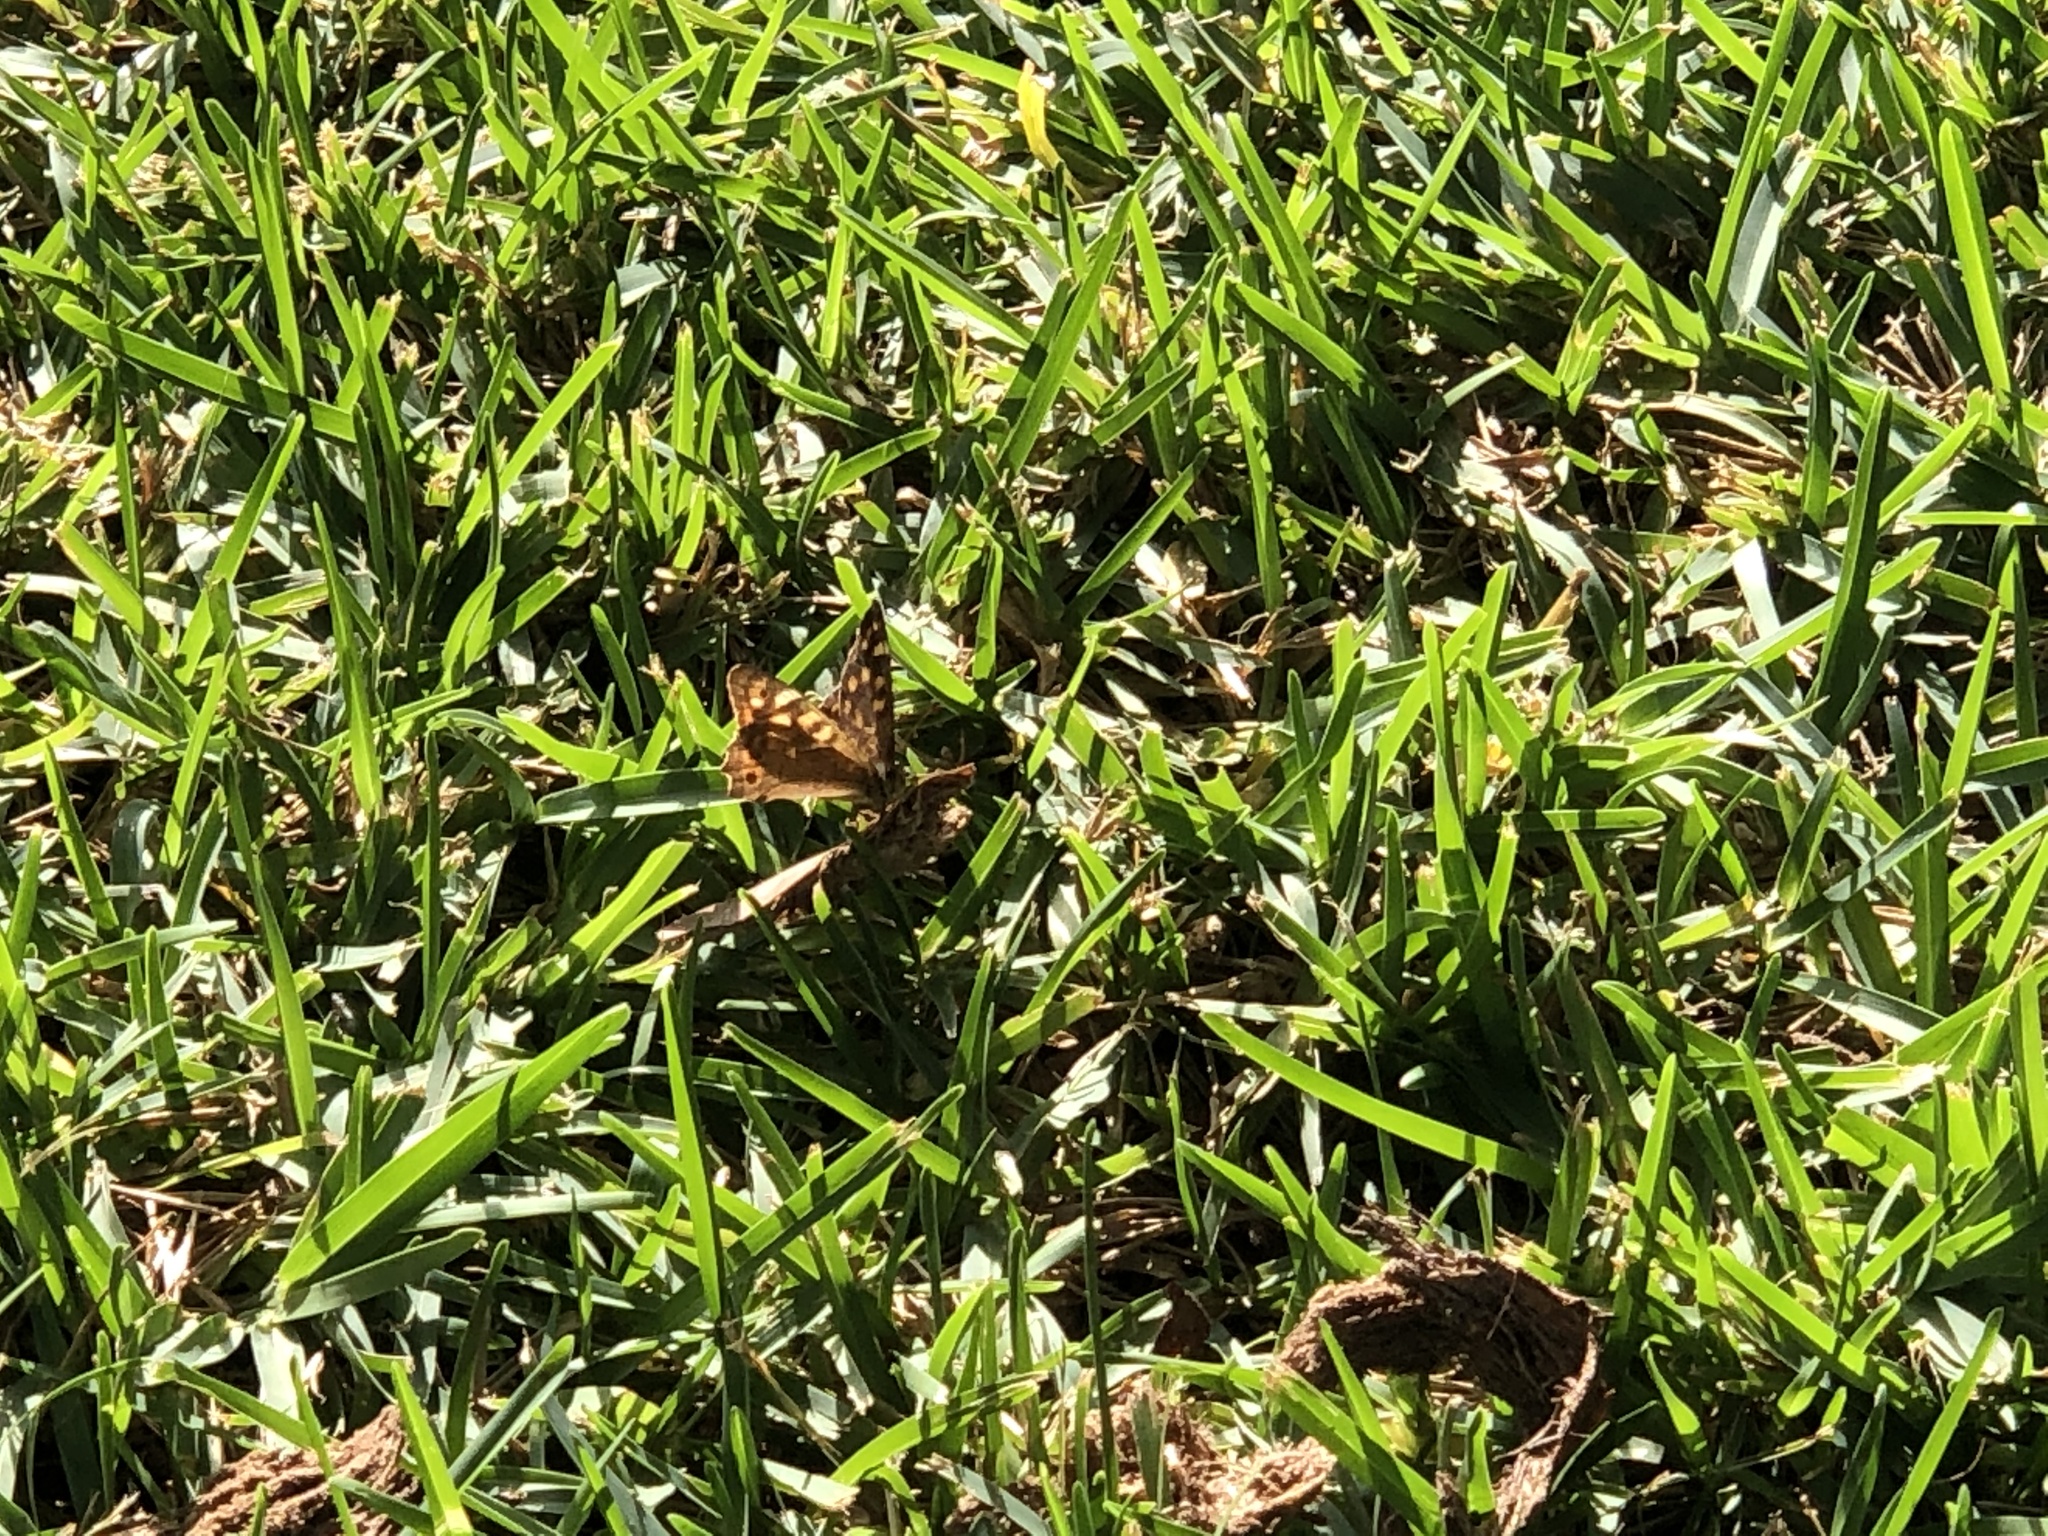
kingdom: Animalia
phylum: Arthropoda
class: Insecta
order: Lepidoptera
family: Nymphalidae
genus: Pararge
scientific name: Pararge aegeria
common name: Speckled wood
